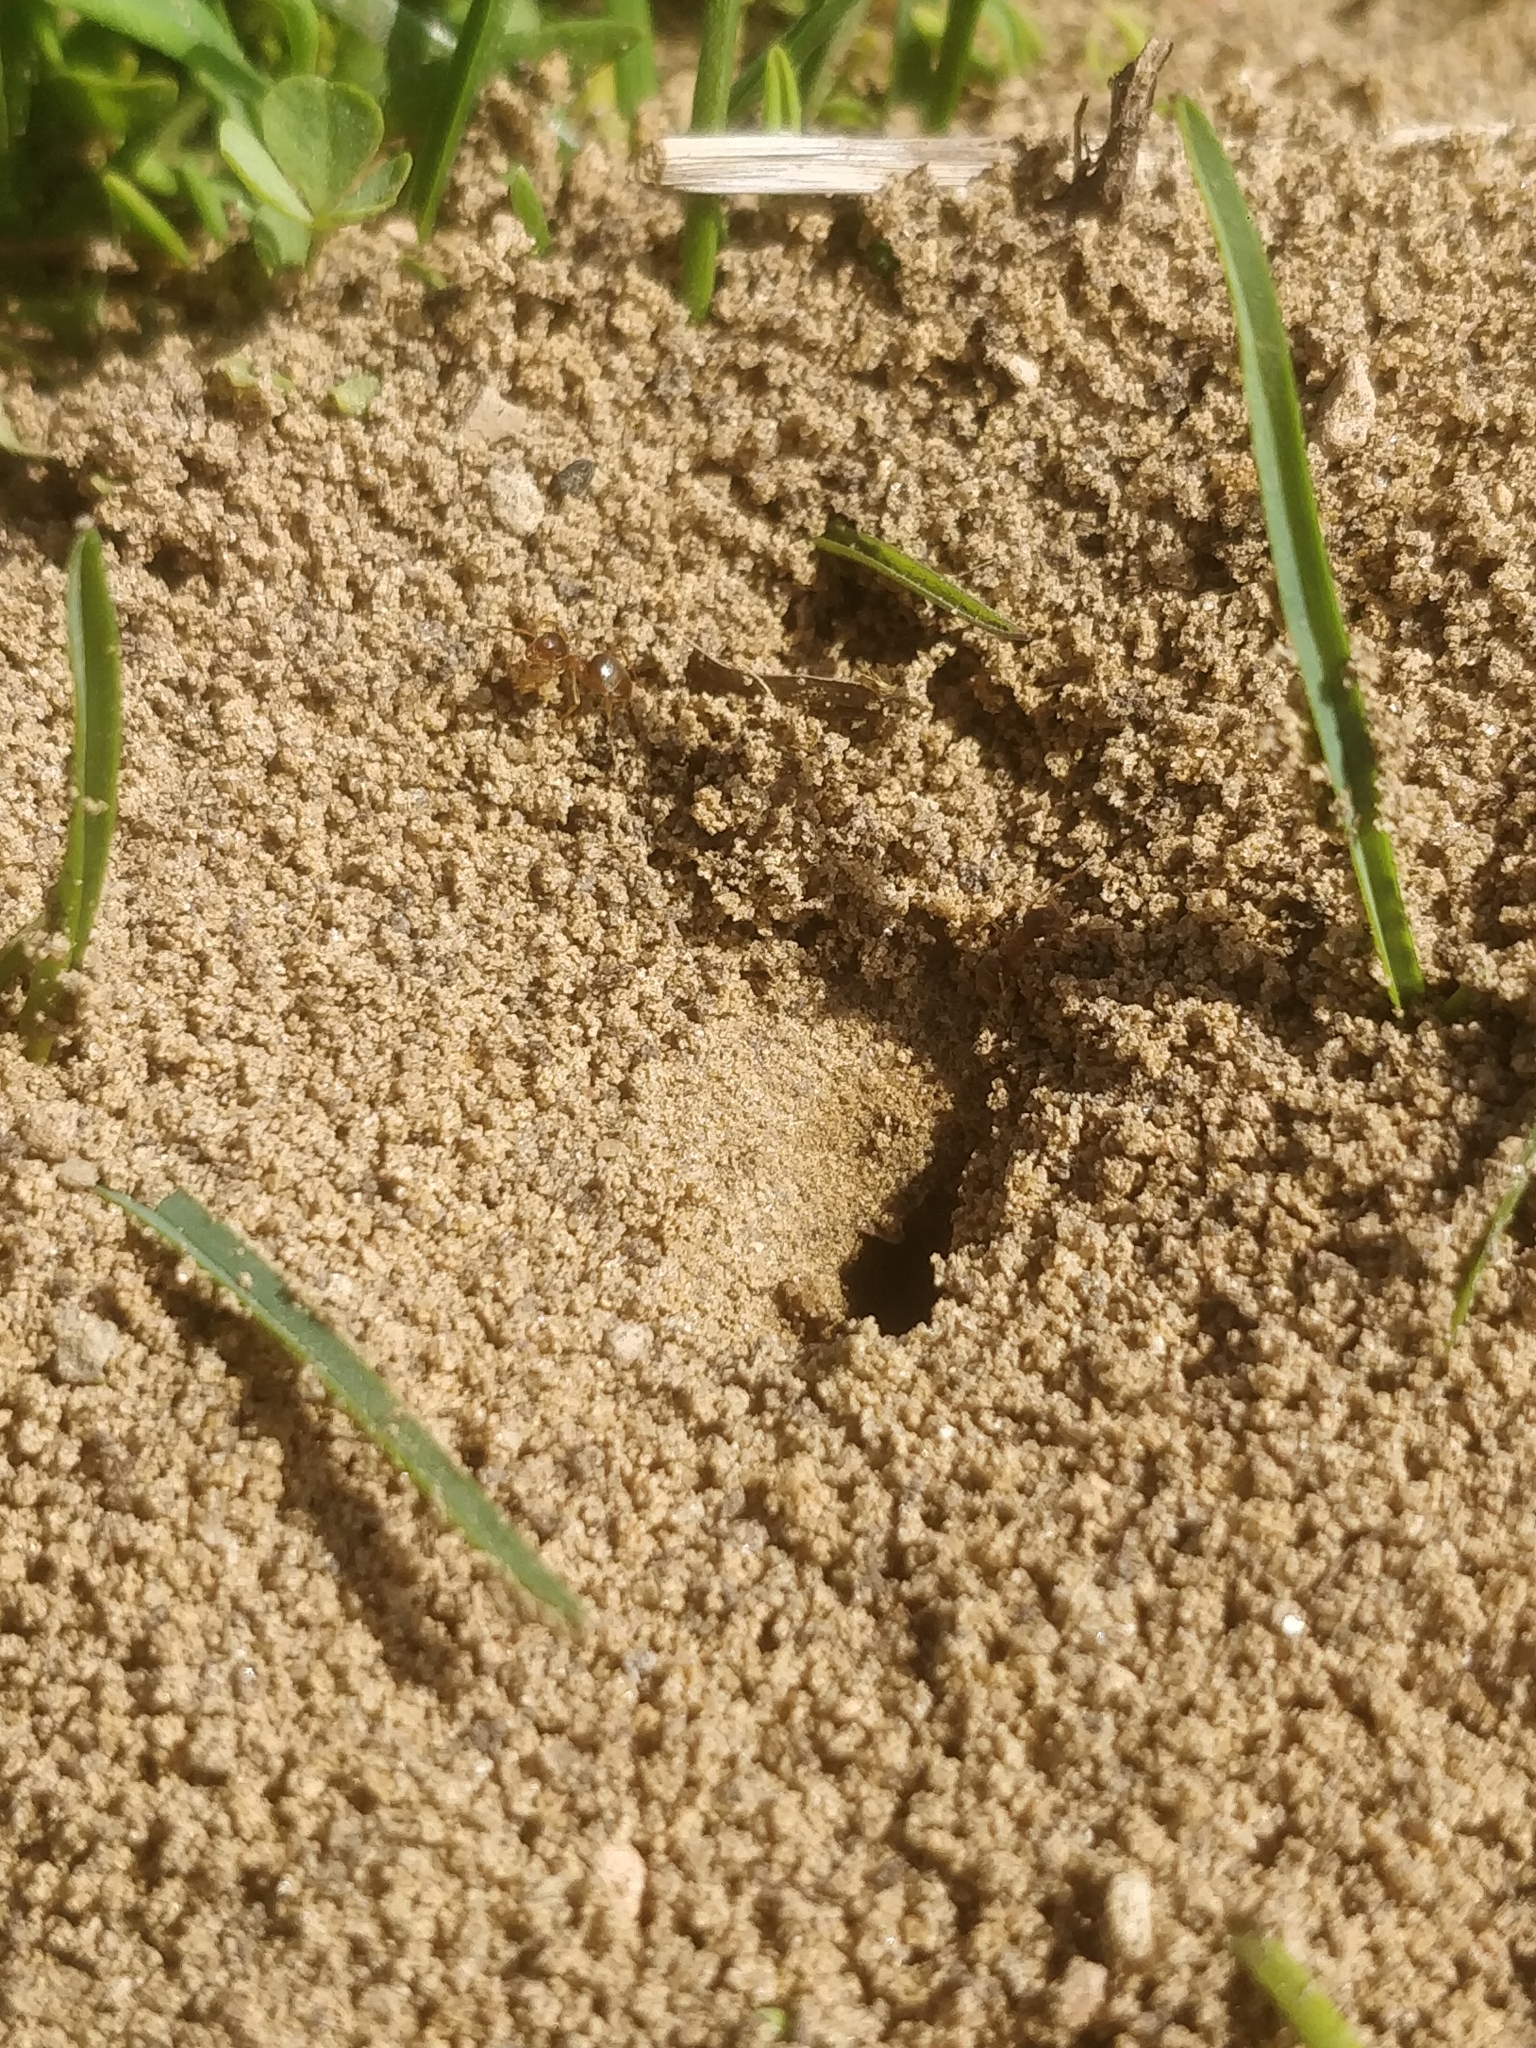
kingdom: Animalia
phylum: Arthropoda
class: Insecta
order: Hymenoptera
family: Formicidae
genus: Lasius
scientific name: Lasius neoniger
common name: Turfgrass ant
